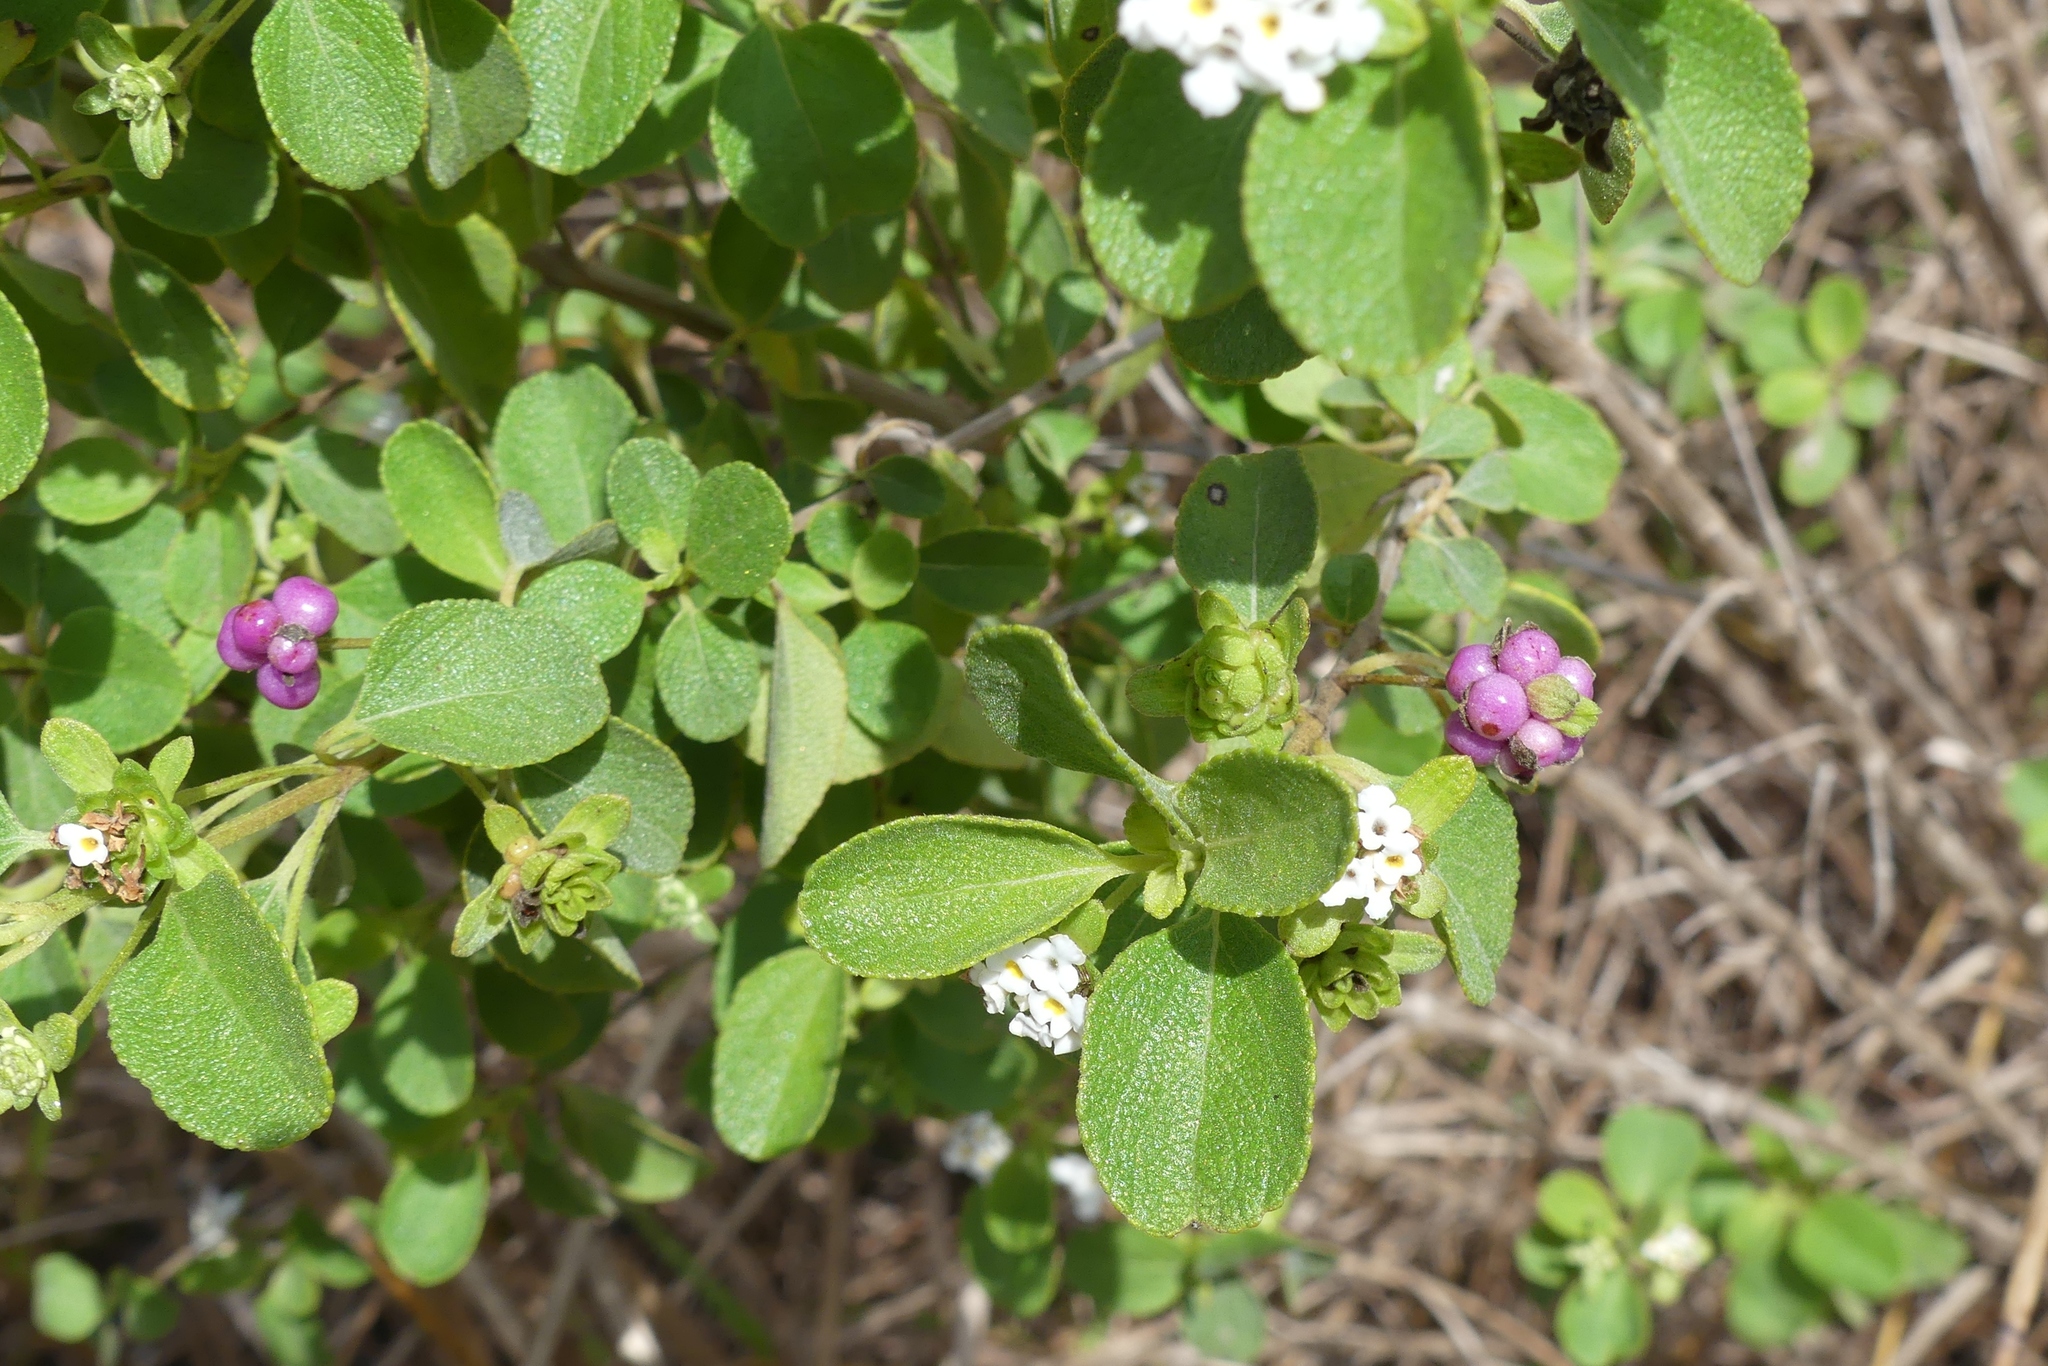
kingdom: Plantae
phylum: Tracheophyta
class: Magnoliopsida
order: Lamiales
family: Verbenaceae
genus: Lantana
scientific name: Lantana involucrata
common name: Black sage
